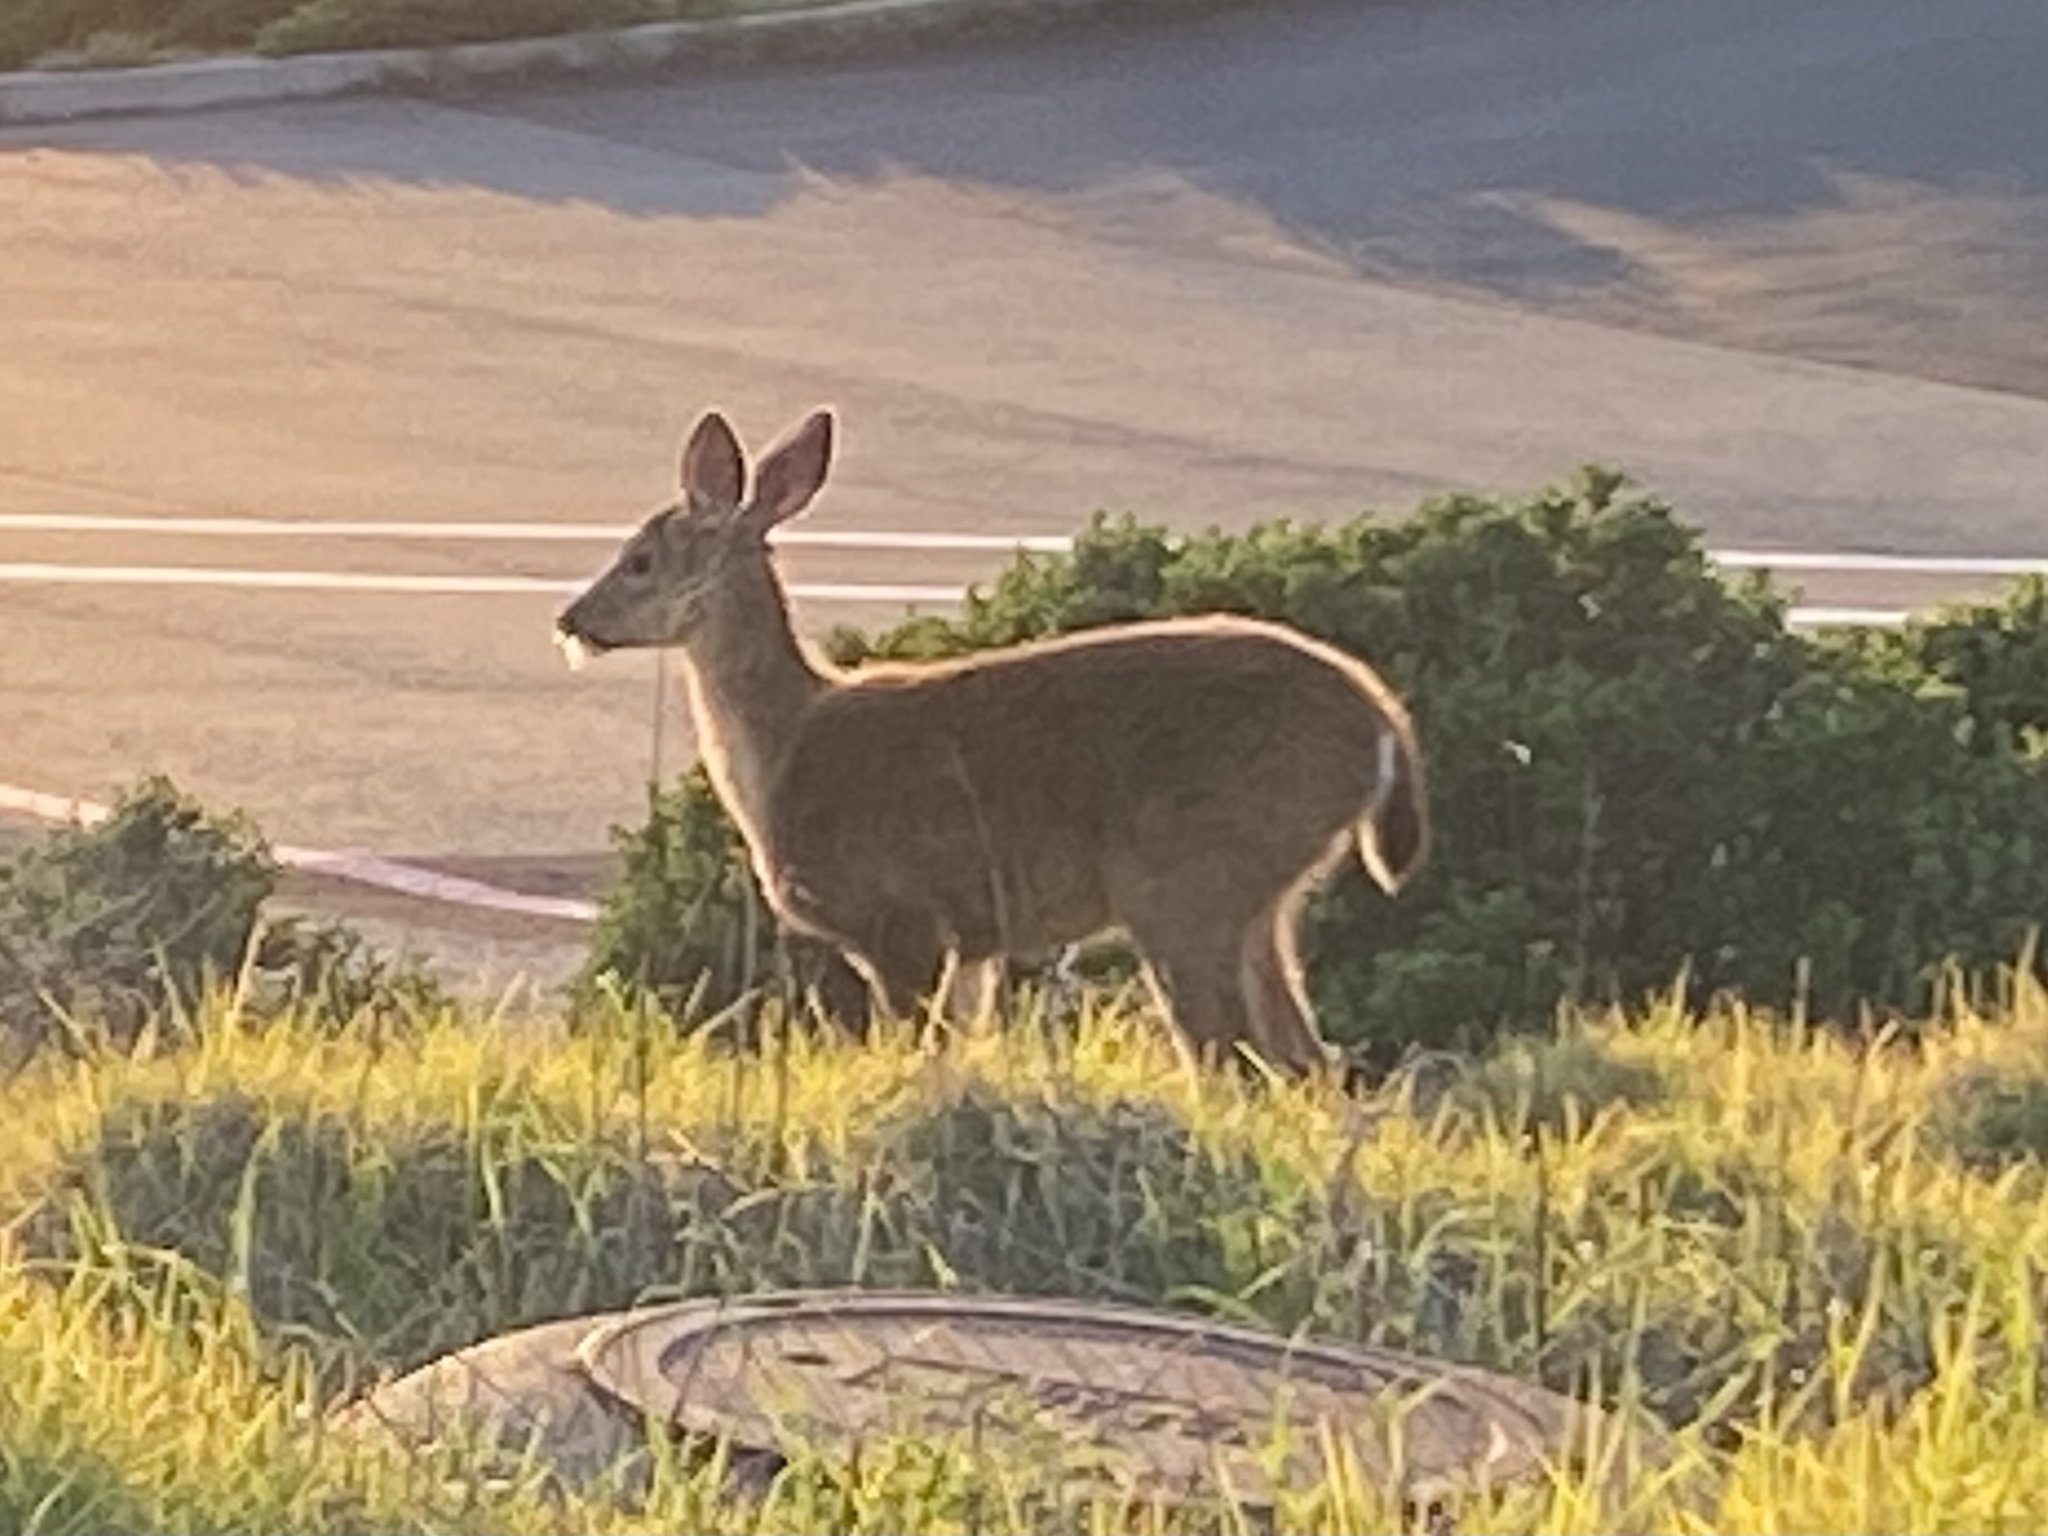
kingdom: Animalia
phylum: Chordata
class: Mammalia
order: Artiodactyla
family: Cervidae
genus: Odocoileus
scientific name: Odocoileus hemionus
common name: Mule deer
